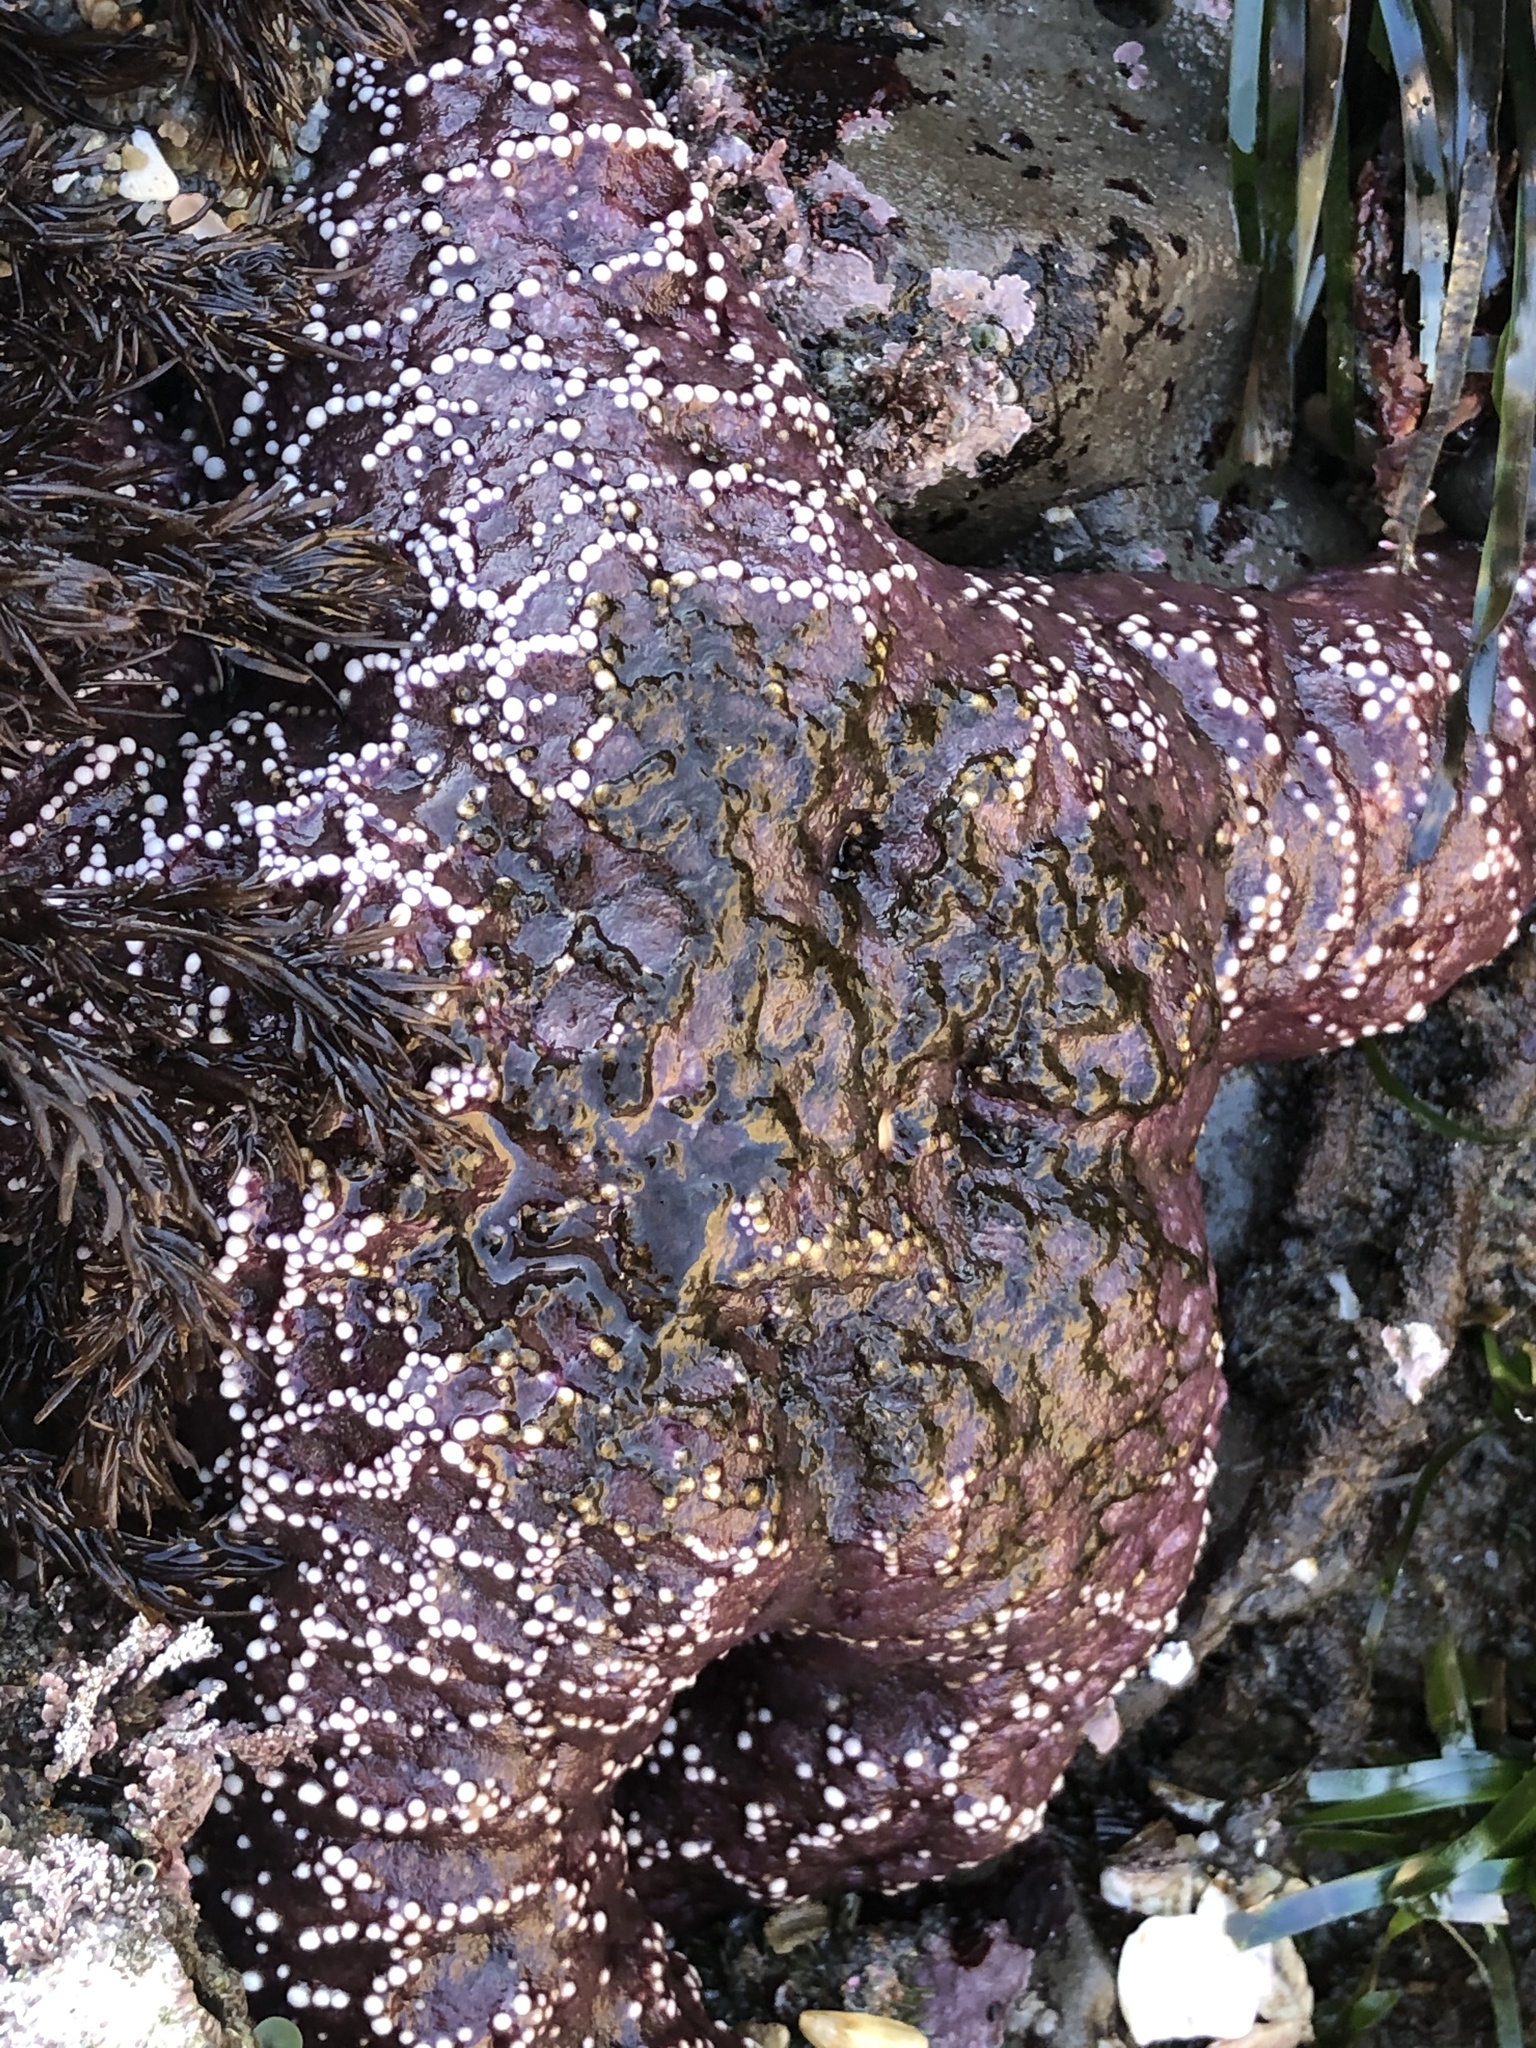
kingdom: Animalia
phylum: Echinodermata
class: Asteroidea
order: Forcipulatida
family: Asteriidae
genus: Pisaster
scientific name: Pisaster ochraceus
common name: Ochre stars
